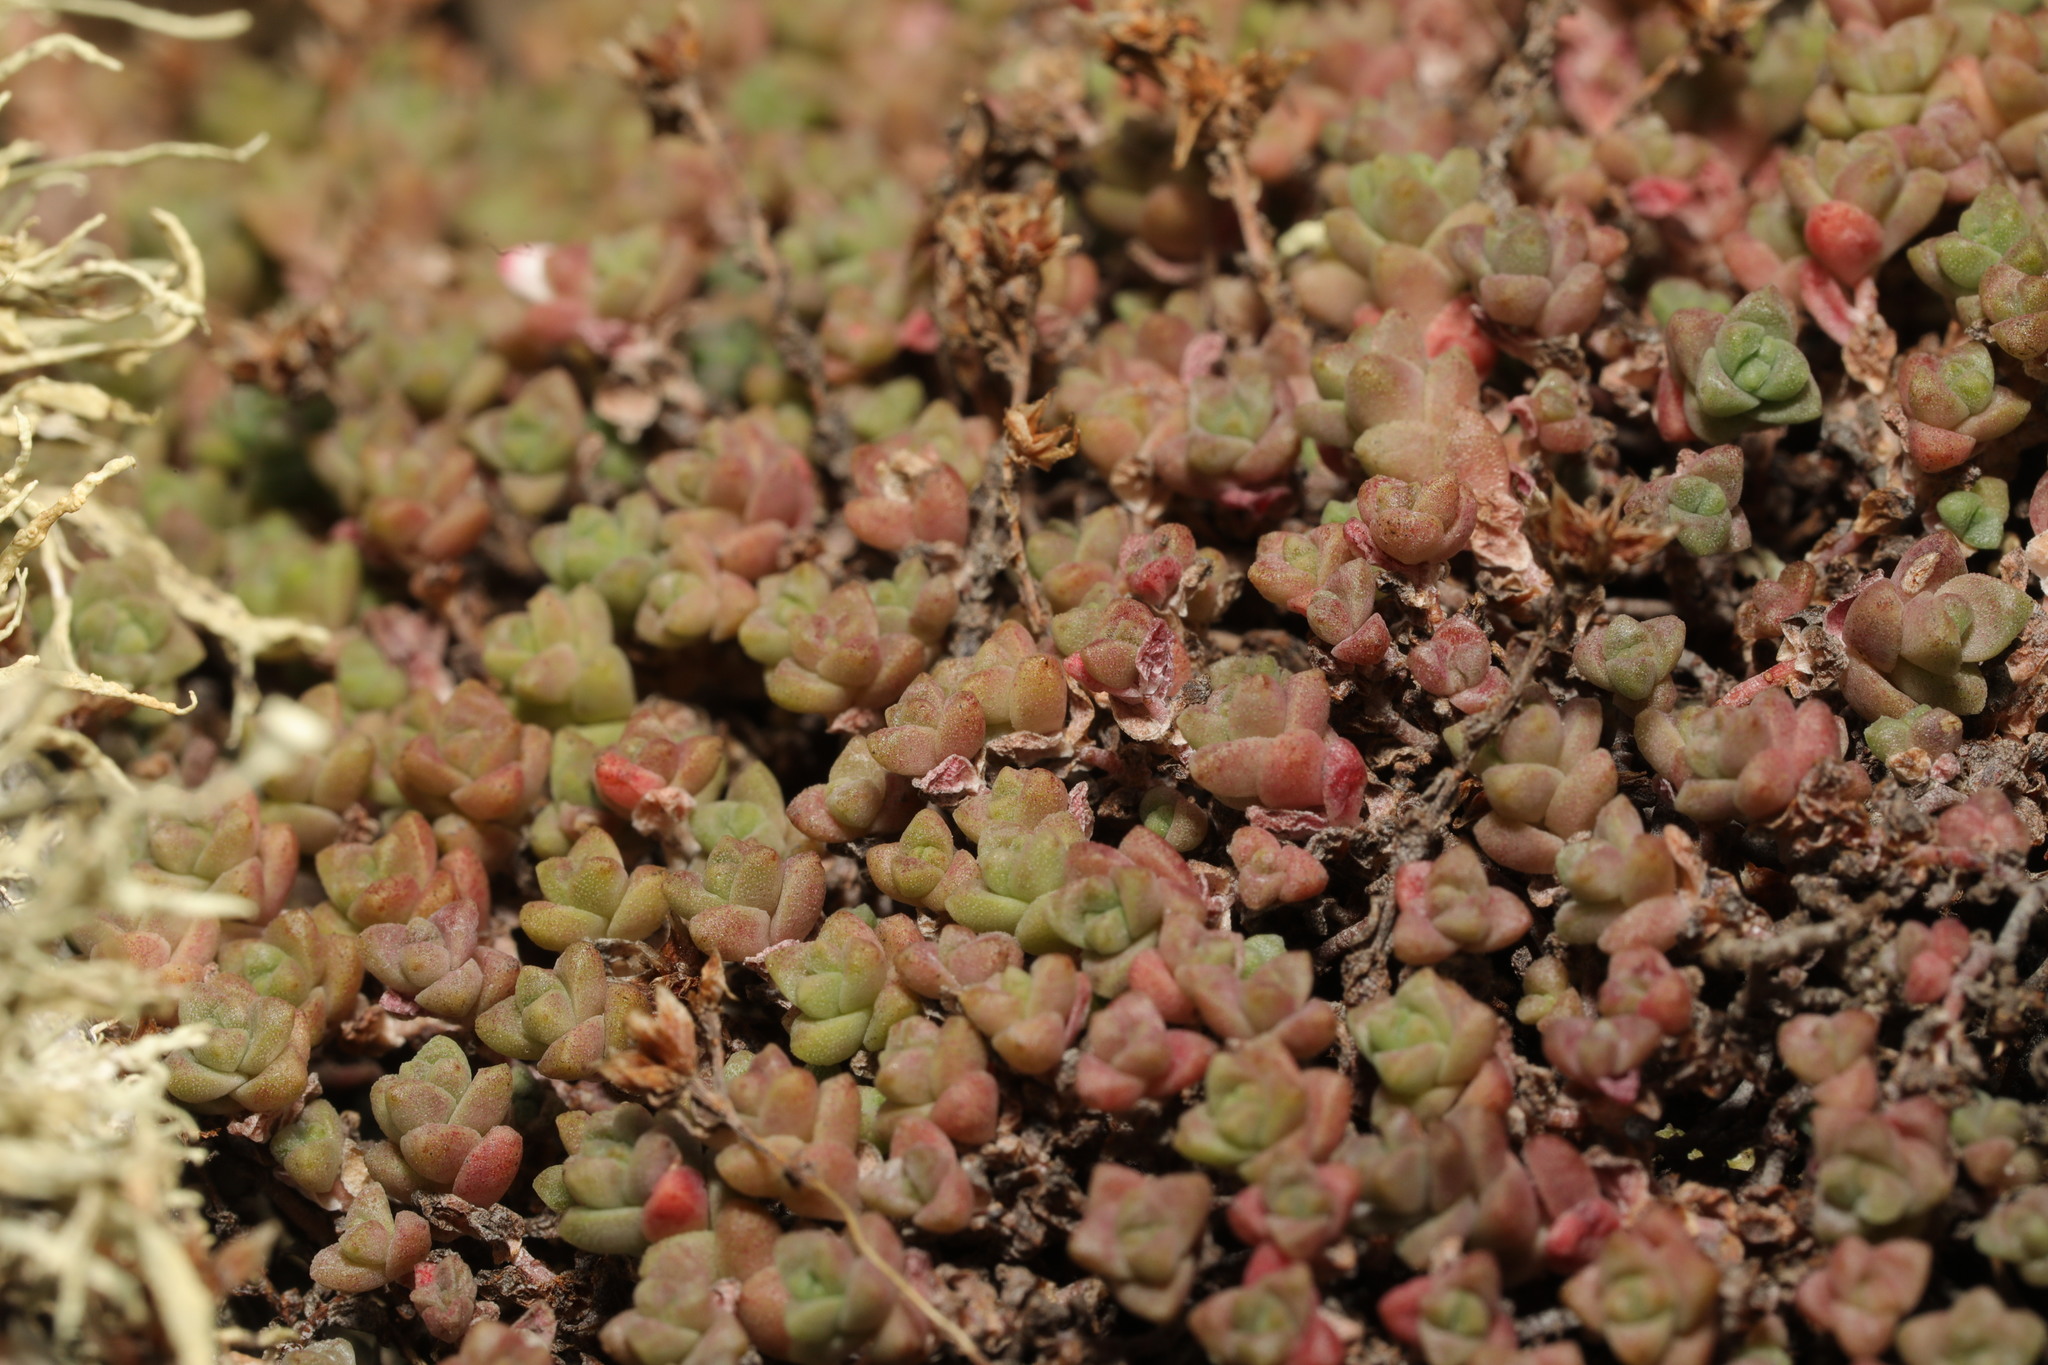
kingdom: Plantae
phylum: Tracheophyta
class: Magnoliopsida
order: Saxifragales
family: Crassulaceae
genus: Sedum
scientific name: Sedum anglicum
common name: English stonecrop
